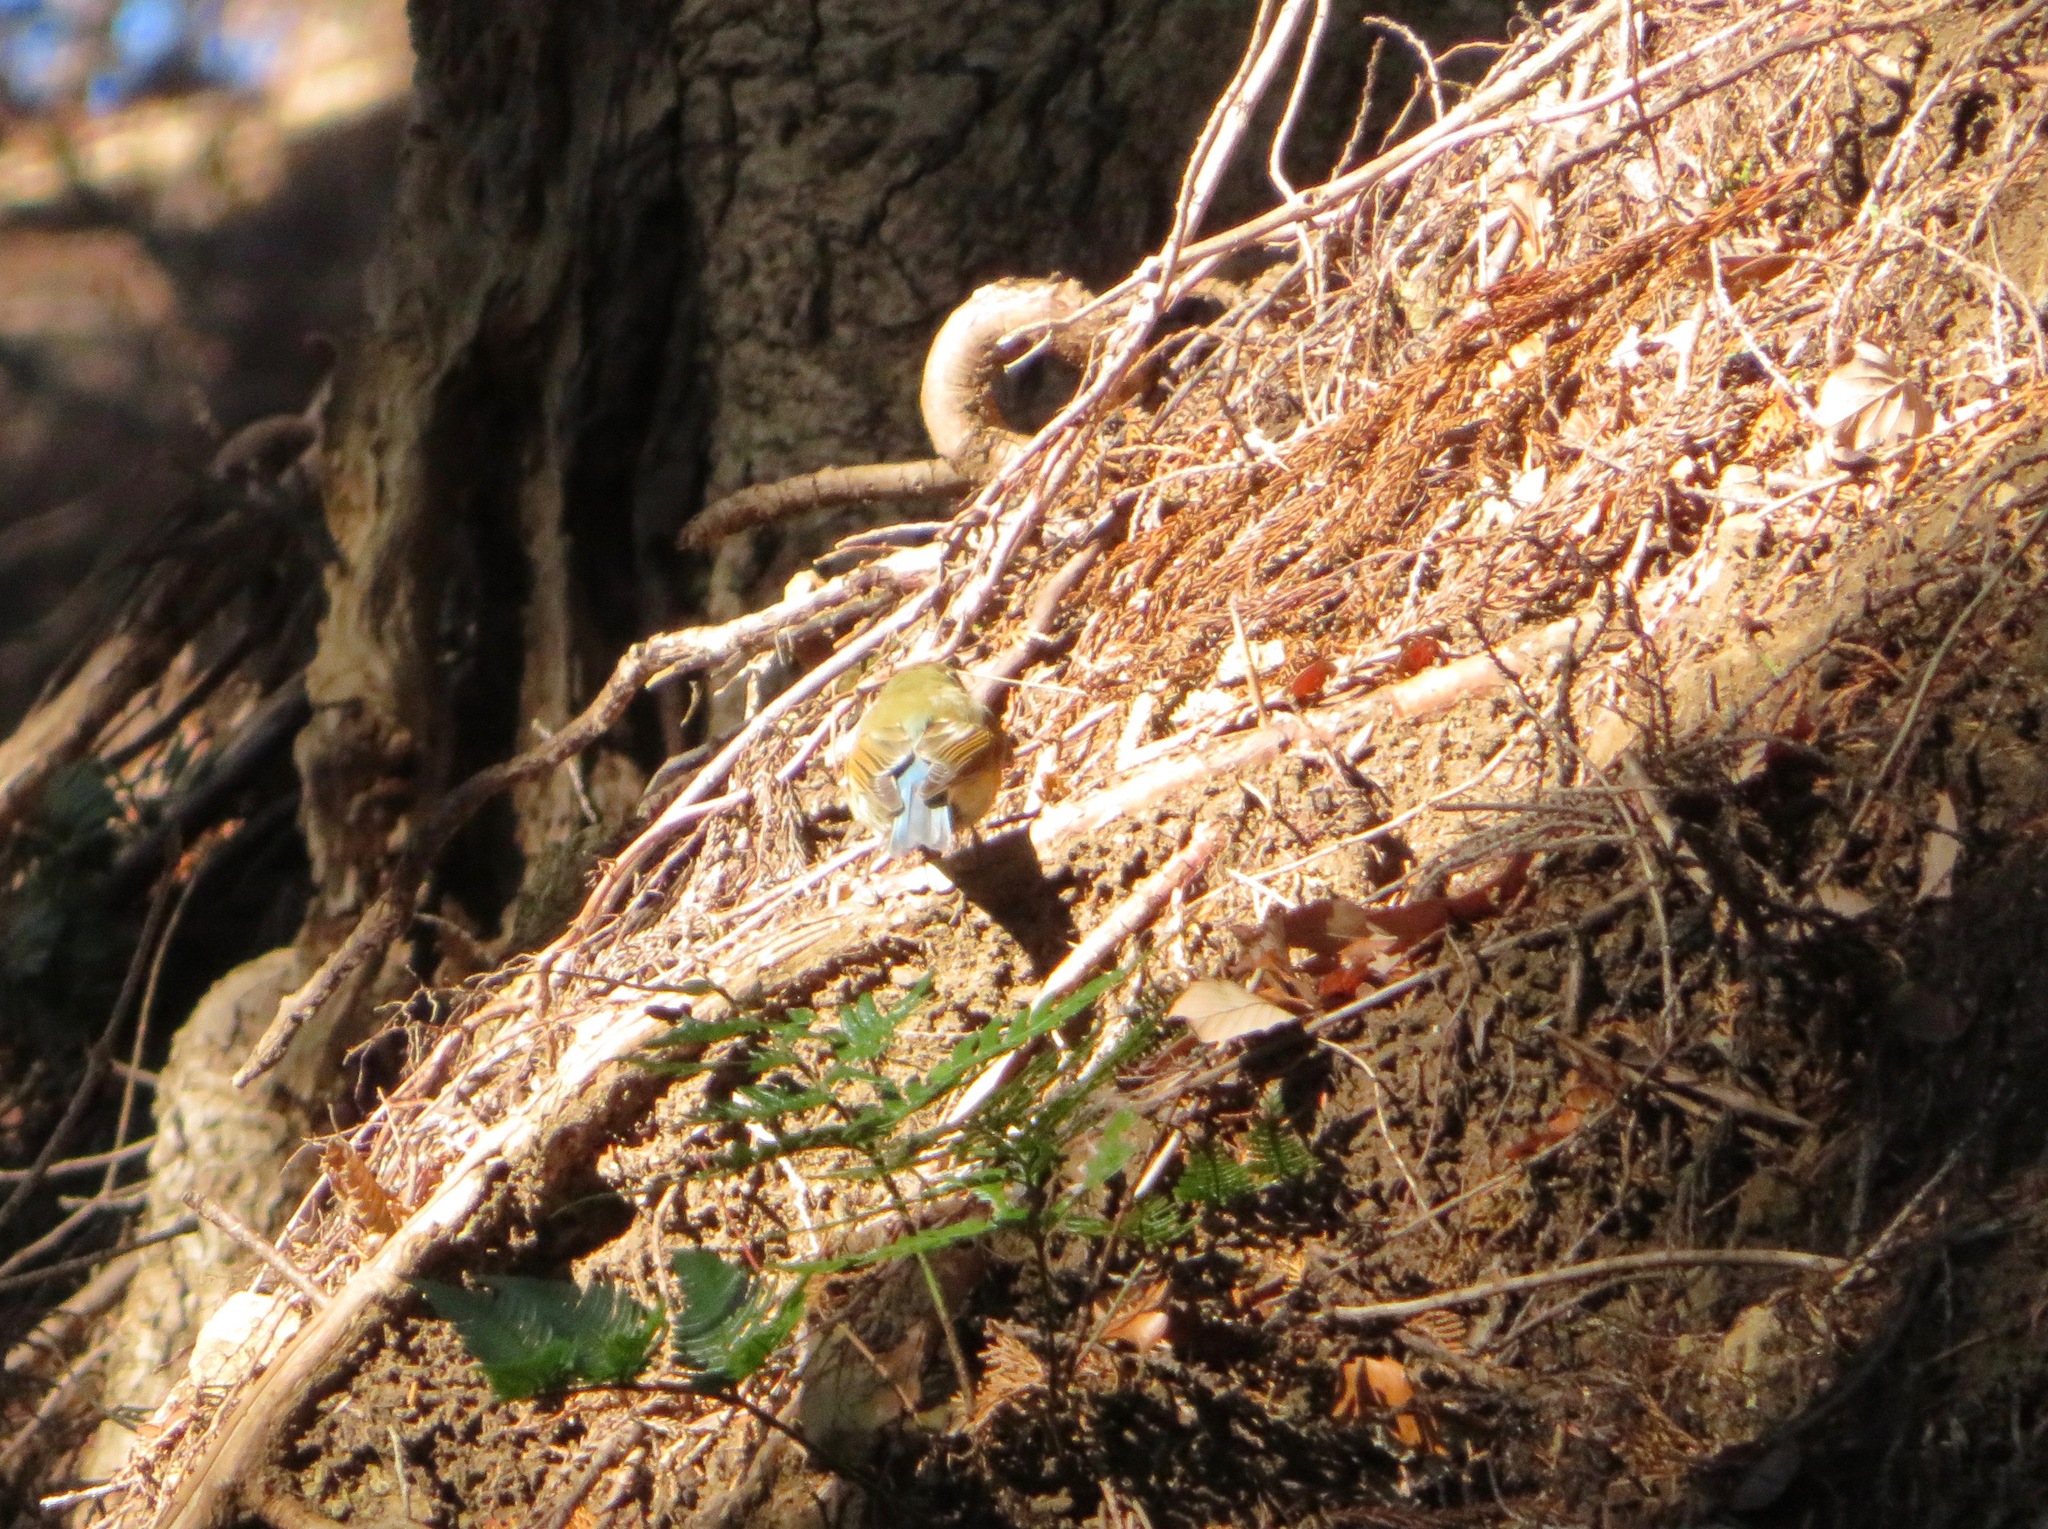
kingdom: Animalia
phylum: Chordata
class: Aves
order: Passeriformes
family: Muscicapidae
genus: Tarsiger
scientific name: Tarsiger cyanurus
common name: Red-flanked bluetail
